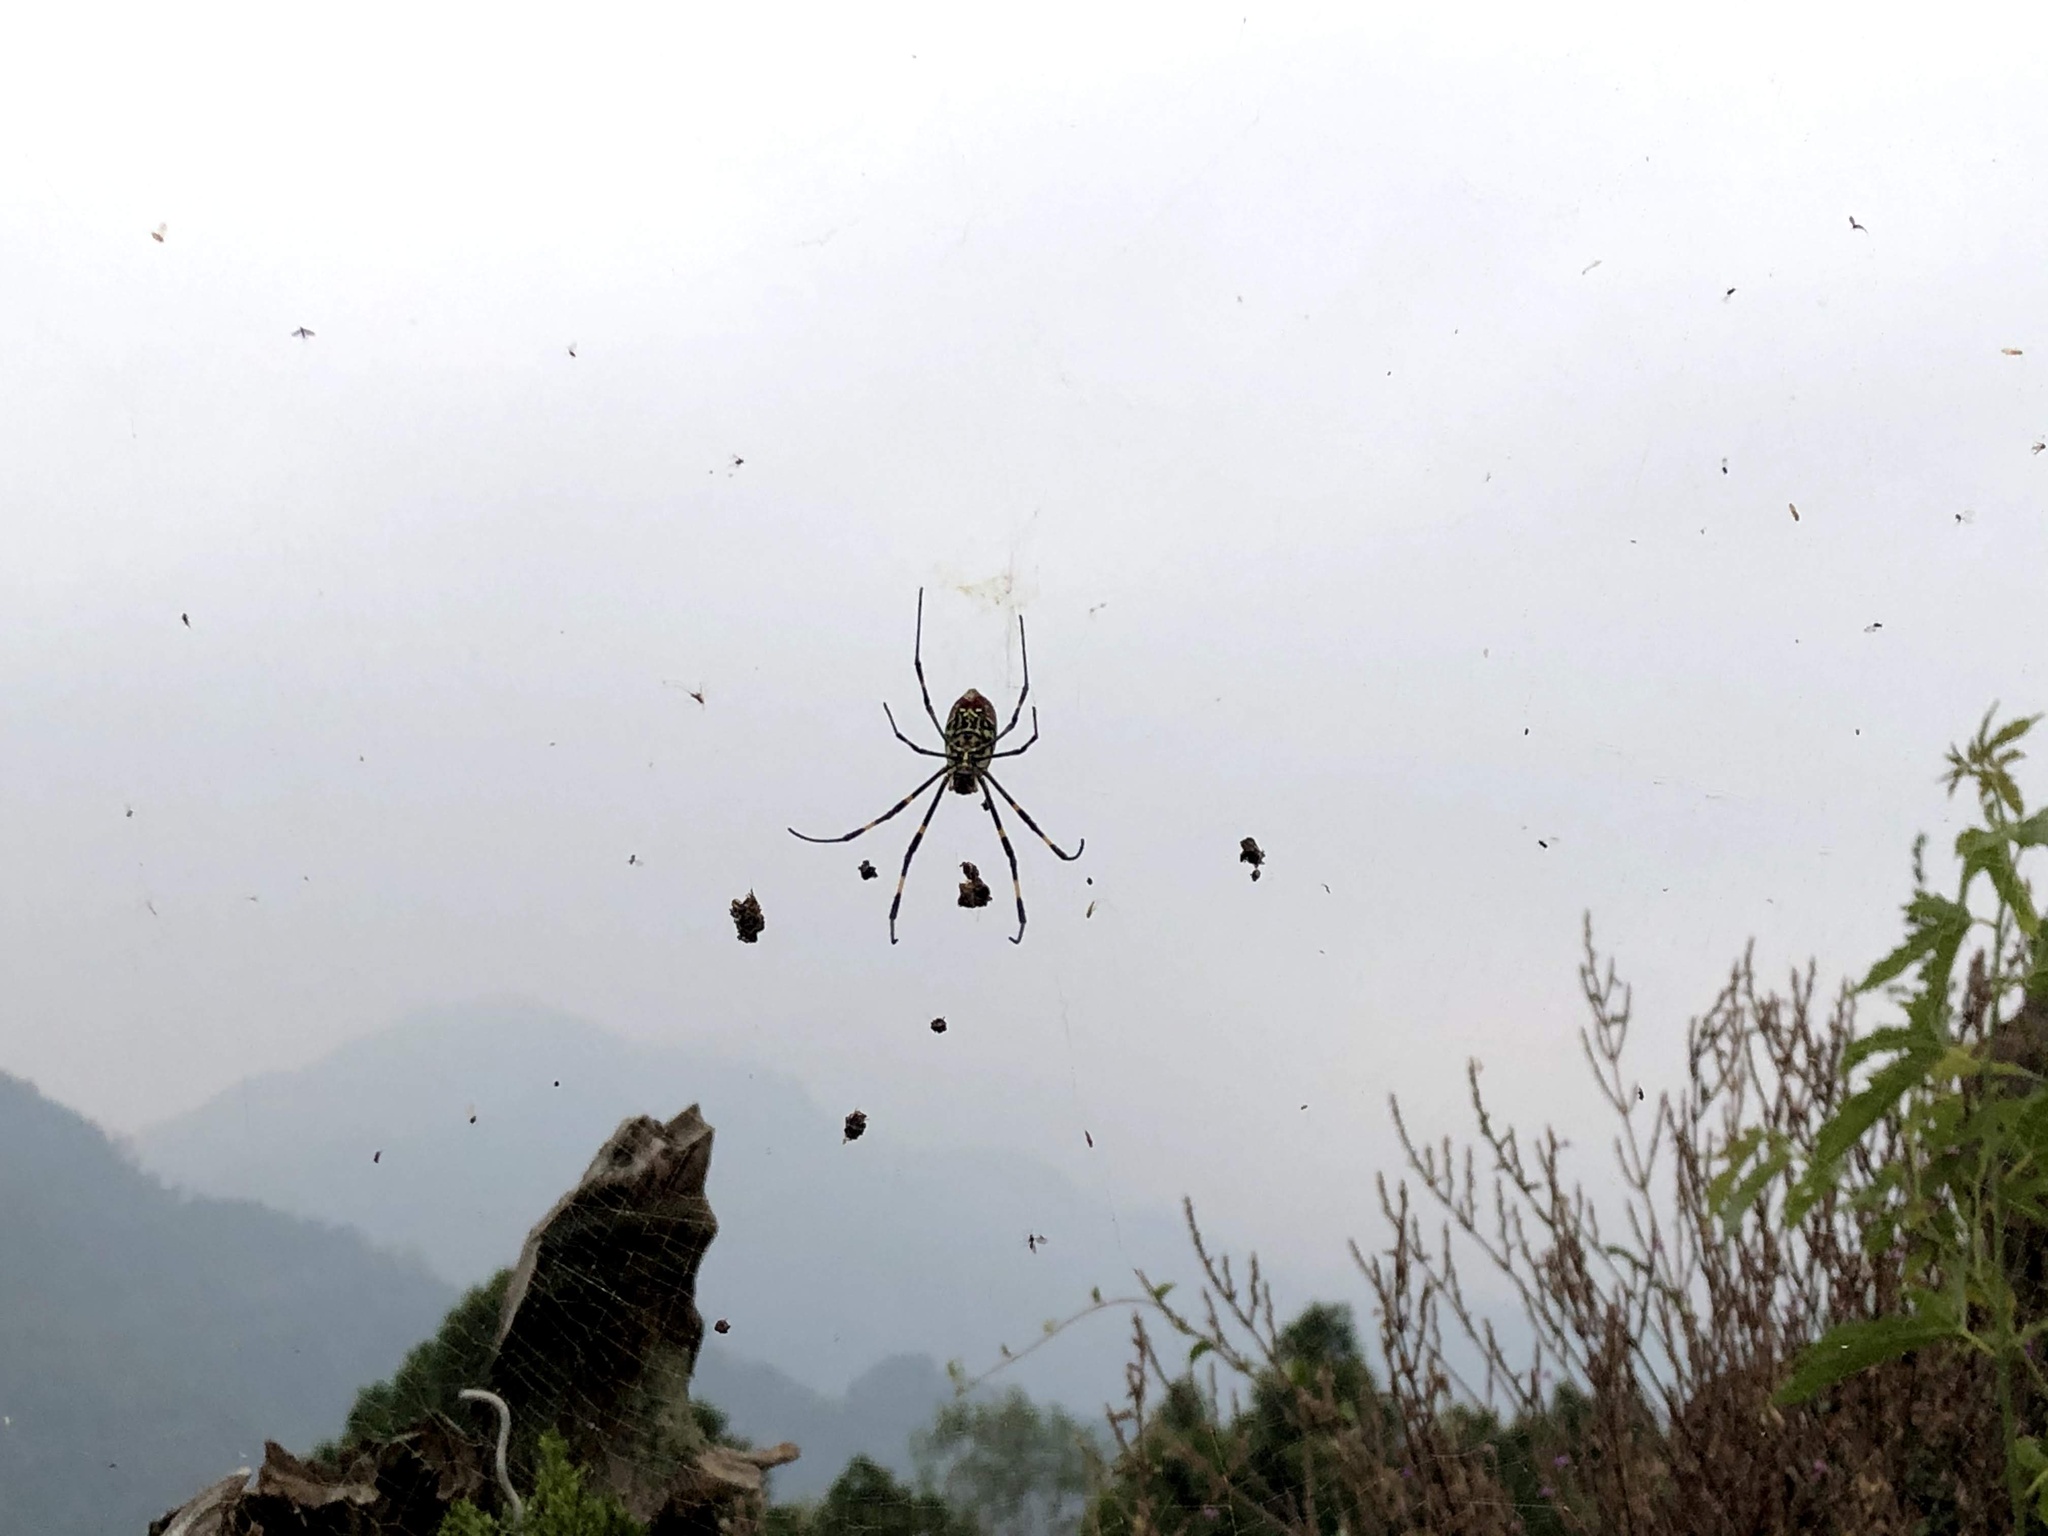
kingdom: Animalia
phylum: Arthropoda
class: Arachnida
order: Araneae
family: Araneidae
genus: Trichonephila
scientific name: Trichonephila clavata
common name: Jorō spider
